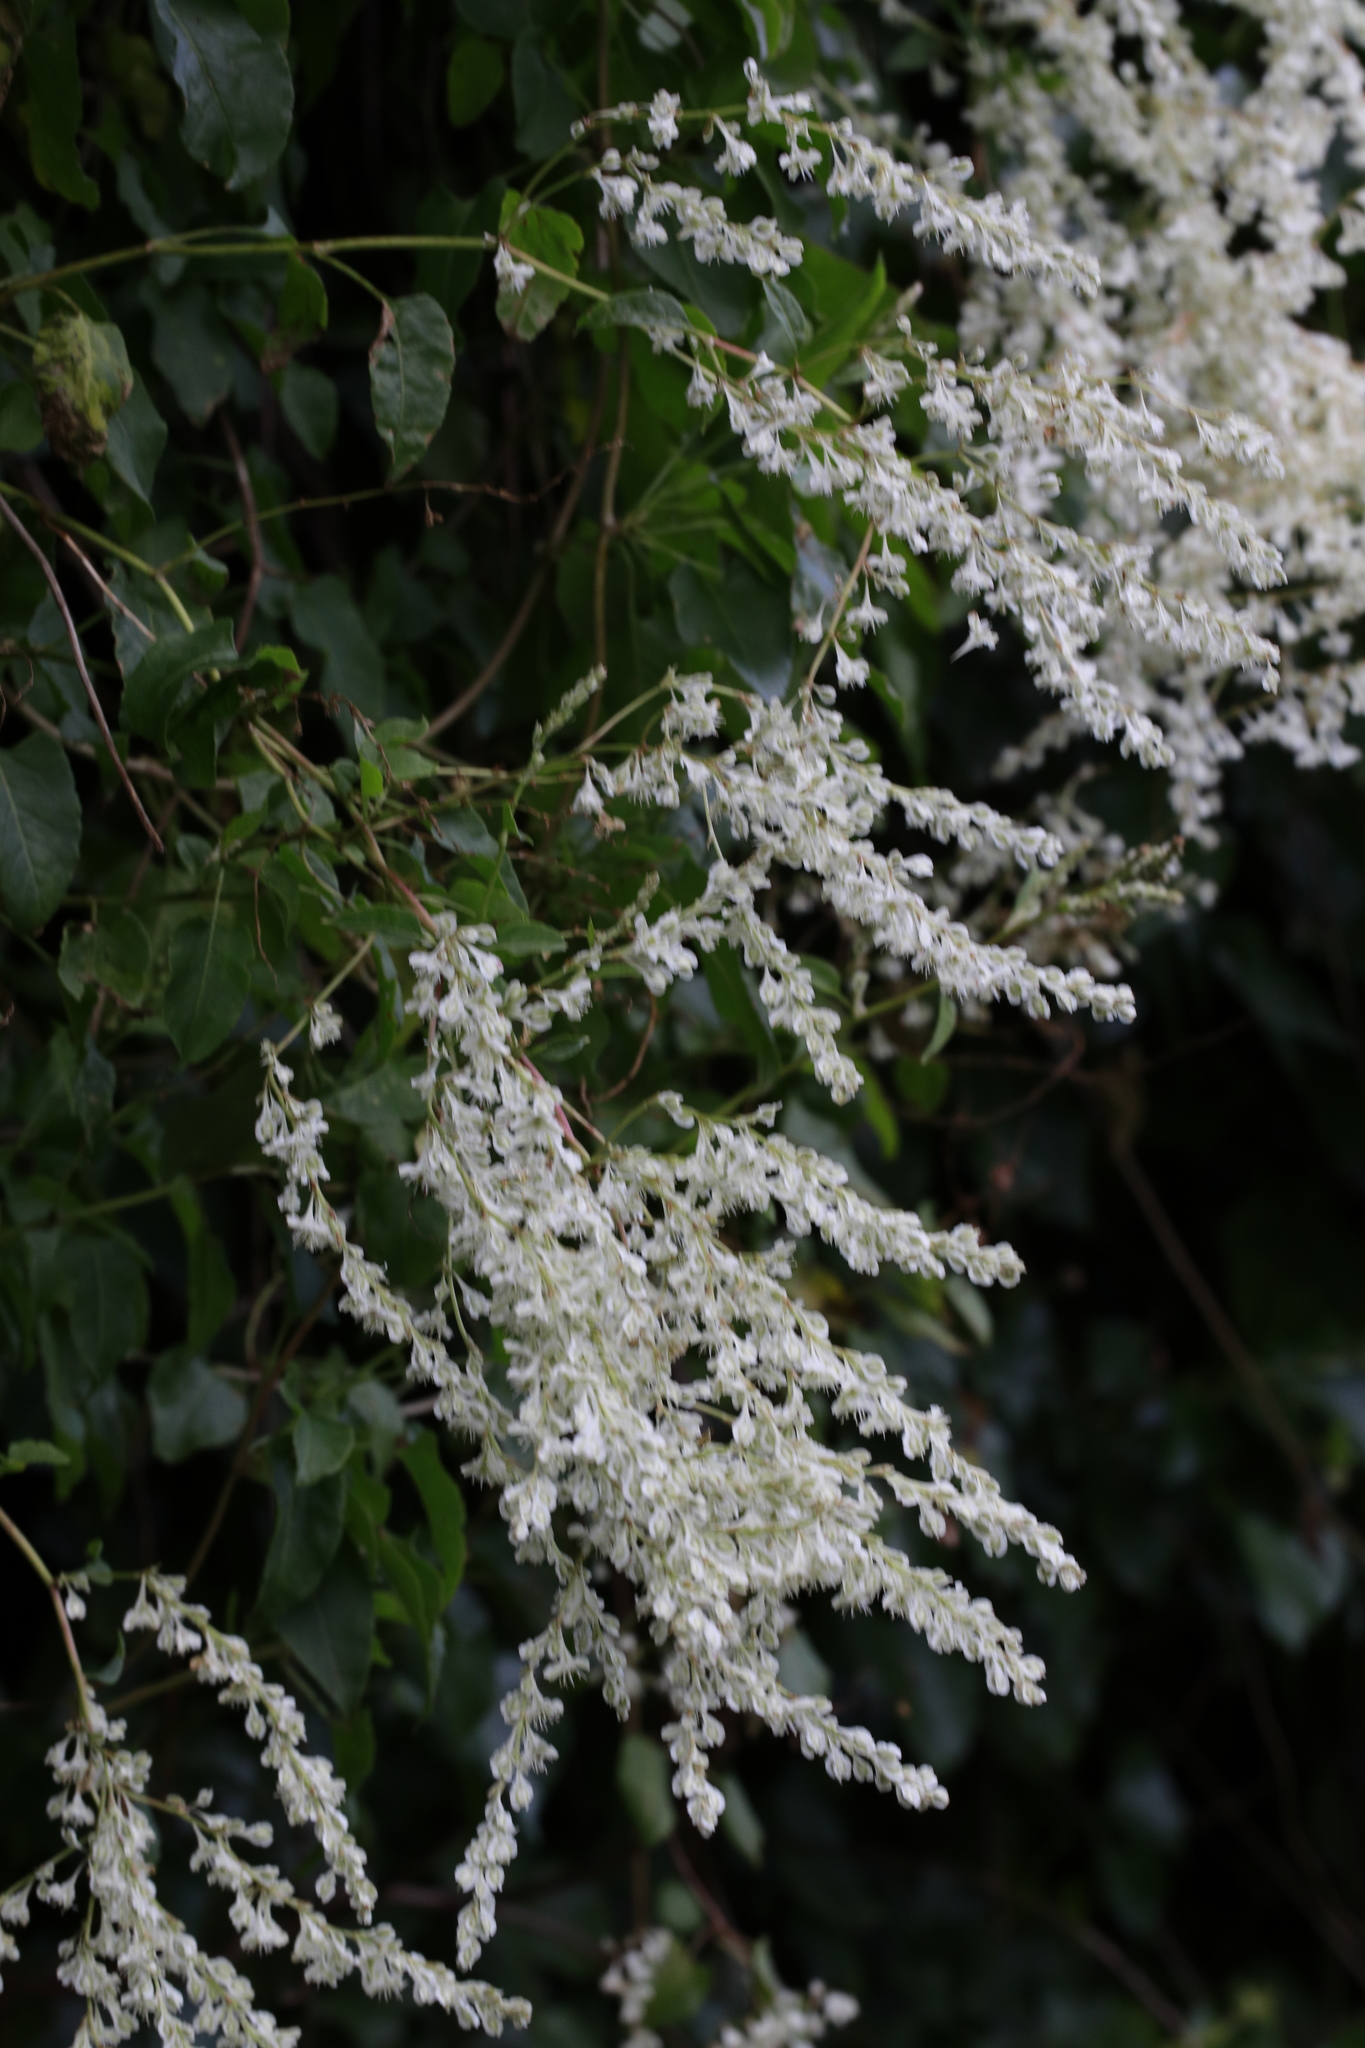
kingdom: Plantae
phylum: Tracheophyta
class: Magnoliopsida
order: Caryophyllales
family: Polygonaceae
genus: Fallopia
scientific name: Fallopia baldschuanica
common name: Russian-vine
